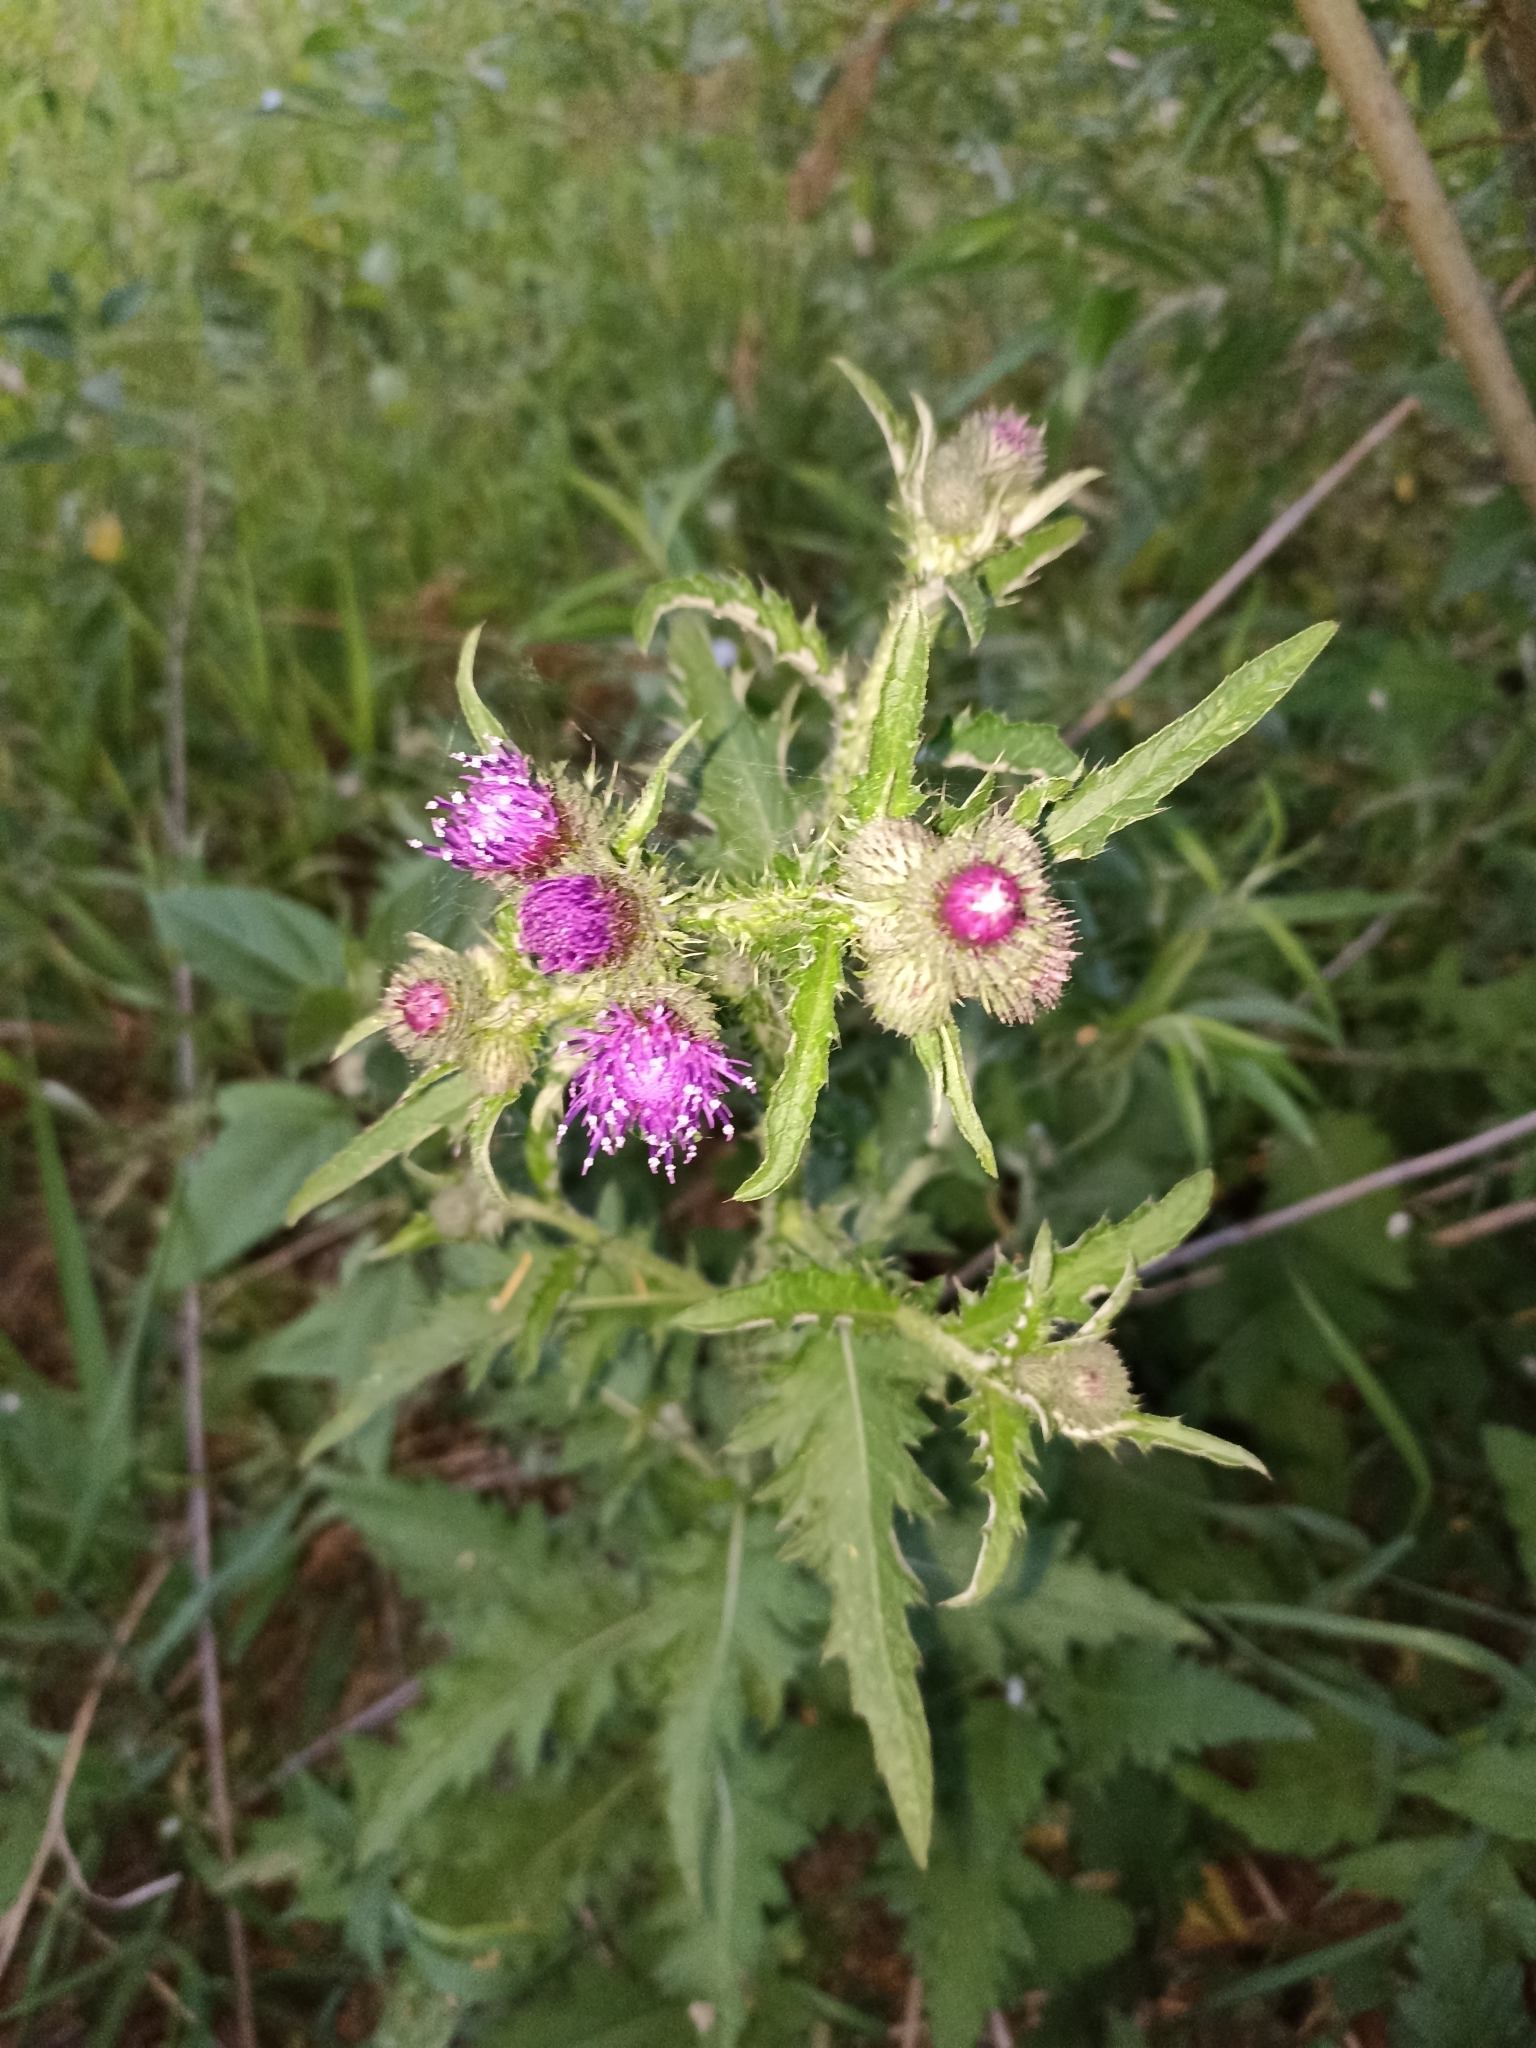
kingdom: Plantae
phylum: Tracheophyta
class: Magnoliopsida
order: Asterales
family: Asteraceae
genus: Carduus
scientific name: Carduus crispus
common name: Welted thistle
